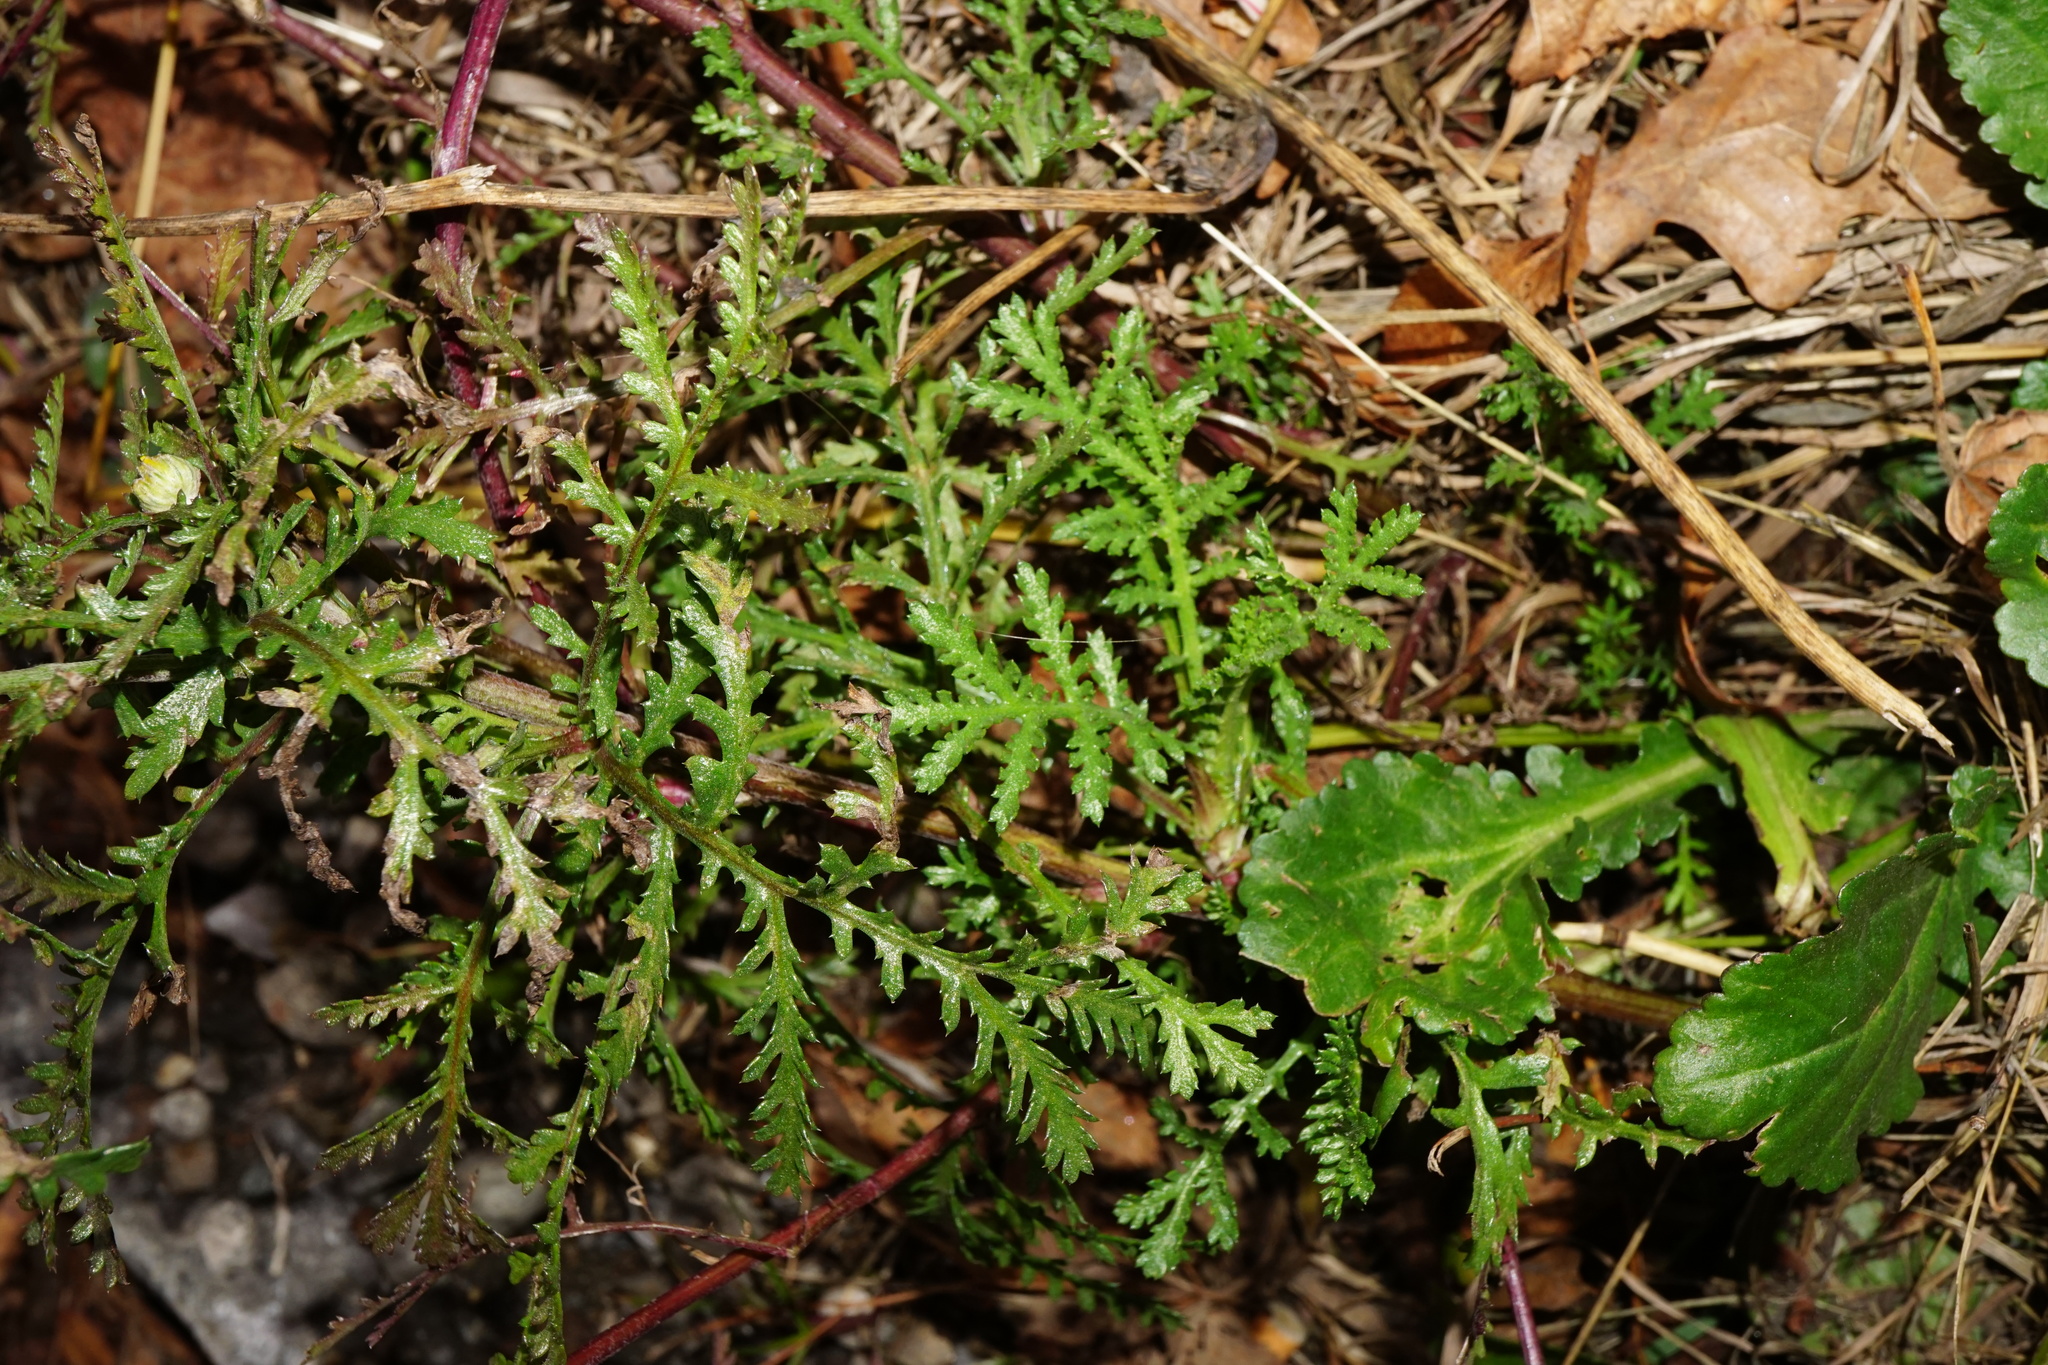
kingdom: Plantae
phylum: Tracheophyta
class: Magnoliopsida
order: Asterales
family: Asteraceae
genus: Cota
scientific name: Cota tinctoria
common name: Golden chamomile
